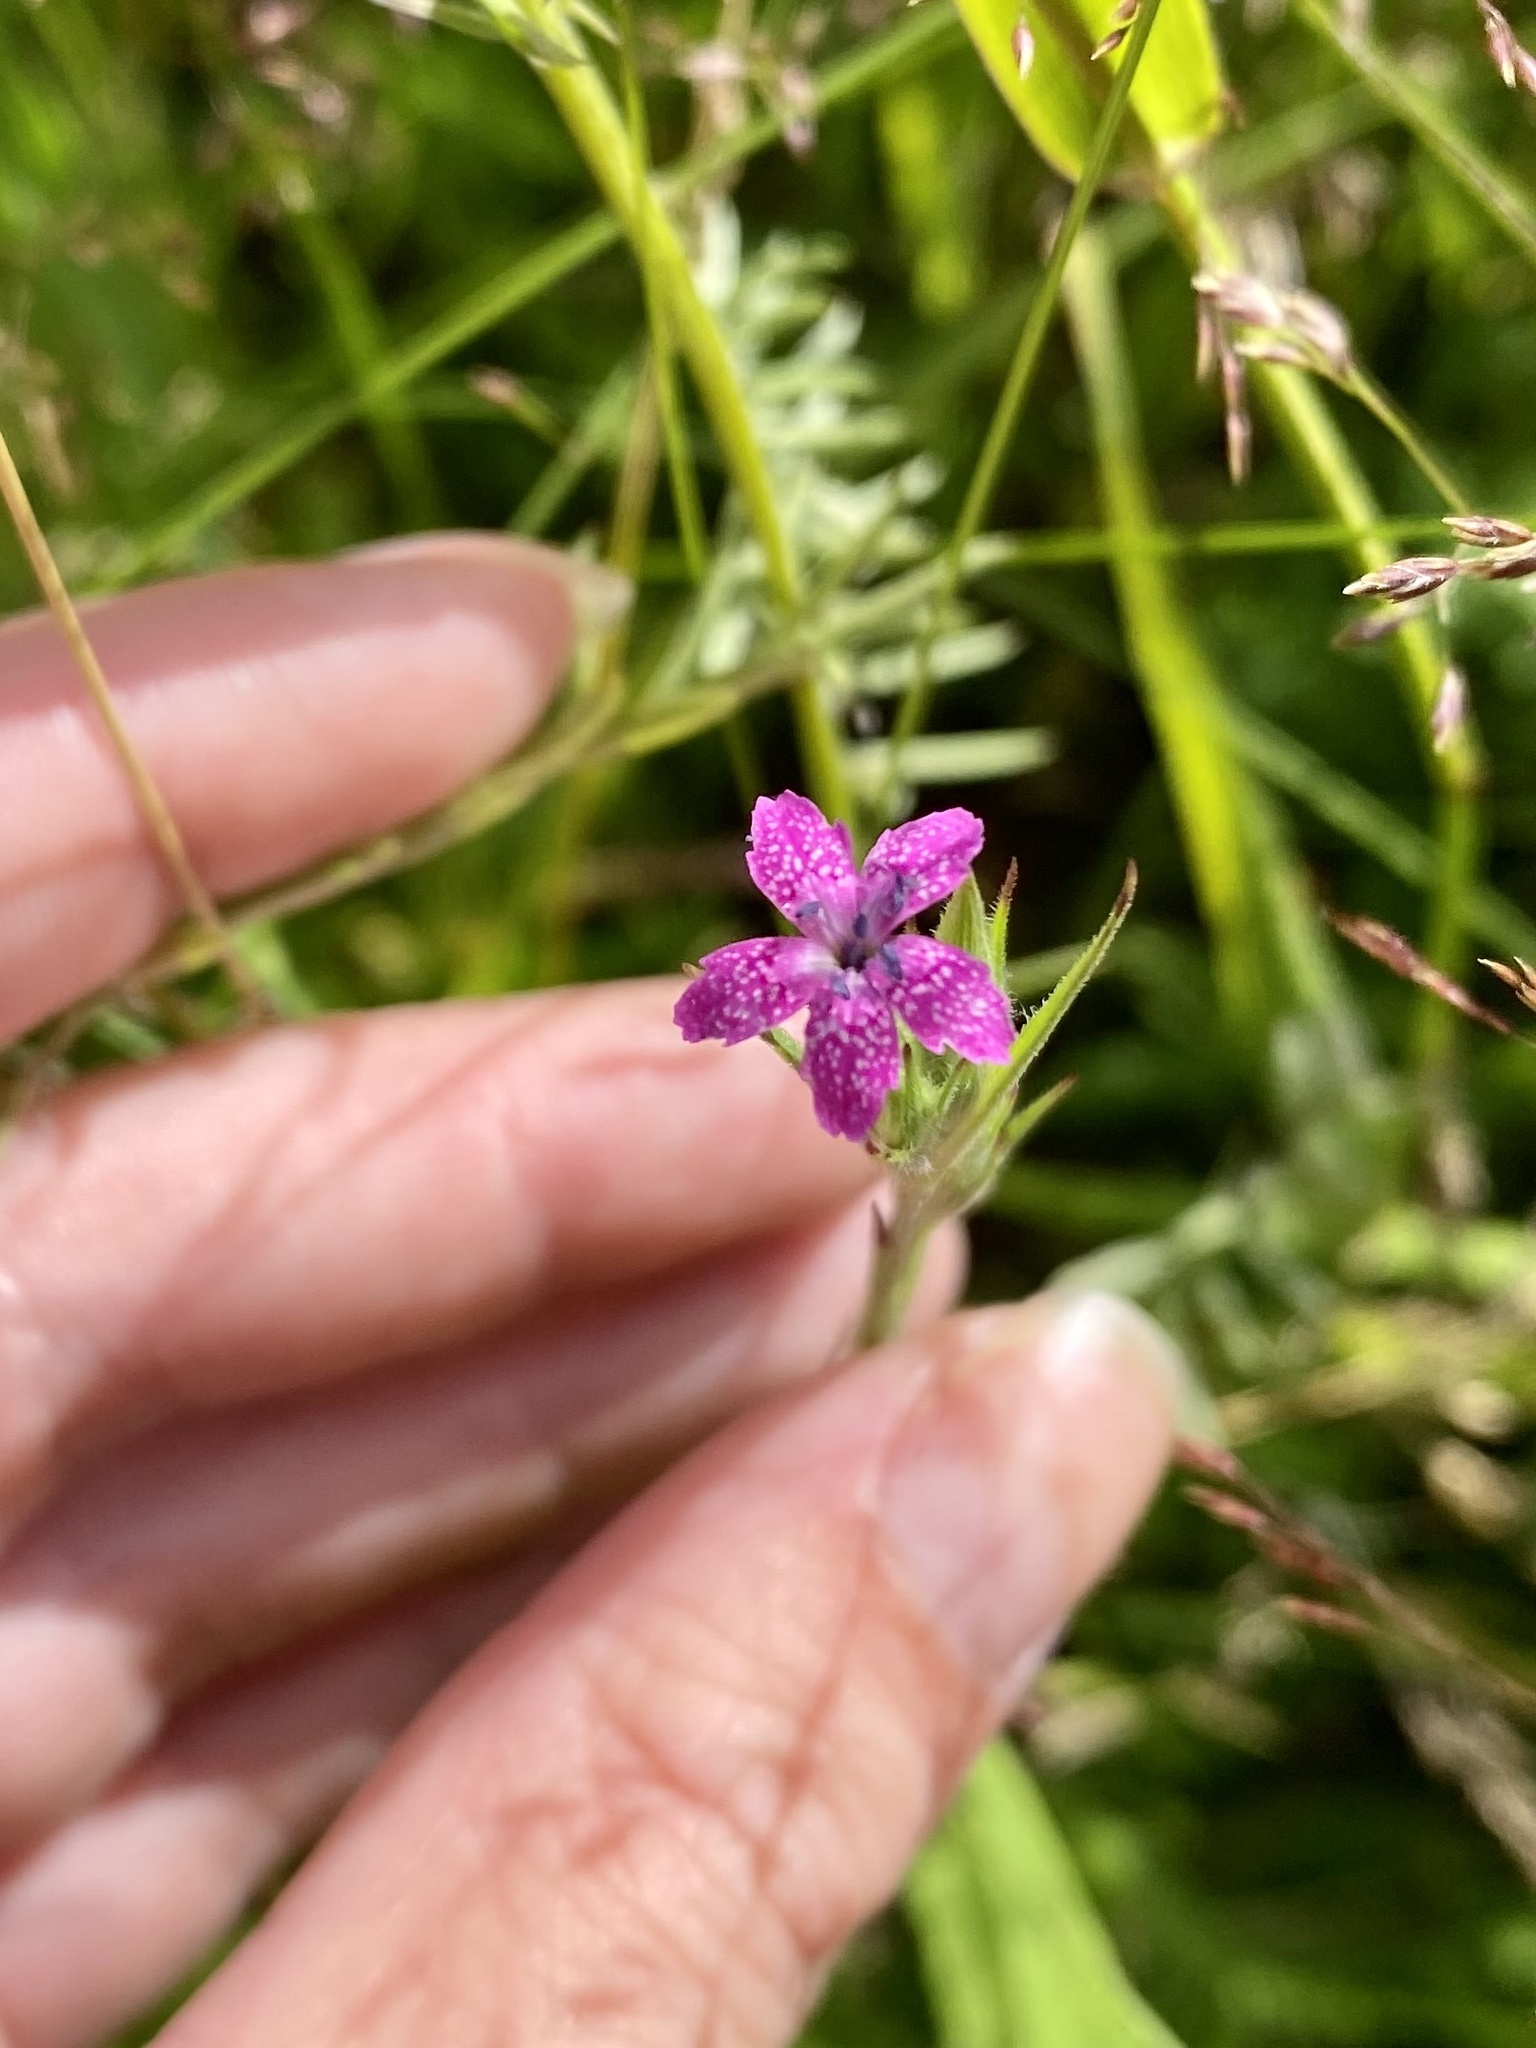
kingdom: Plantae
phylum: Tracheophyta
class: Magnoliopsida
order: Caryophyllales
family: Caryophyllaceae
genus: Dianthus
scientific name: Dianthus armeria
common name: Deptford pink
